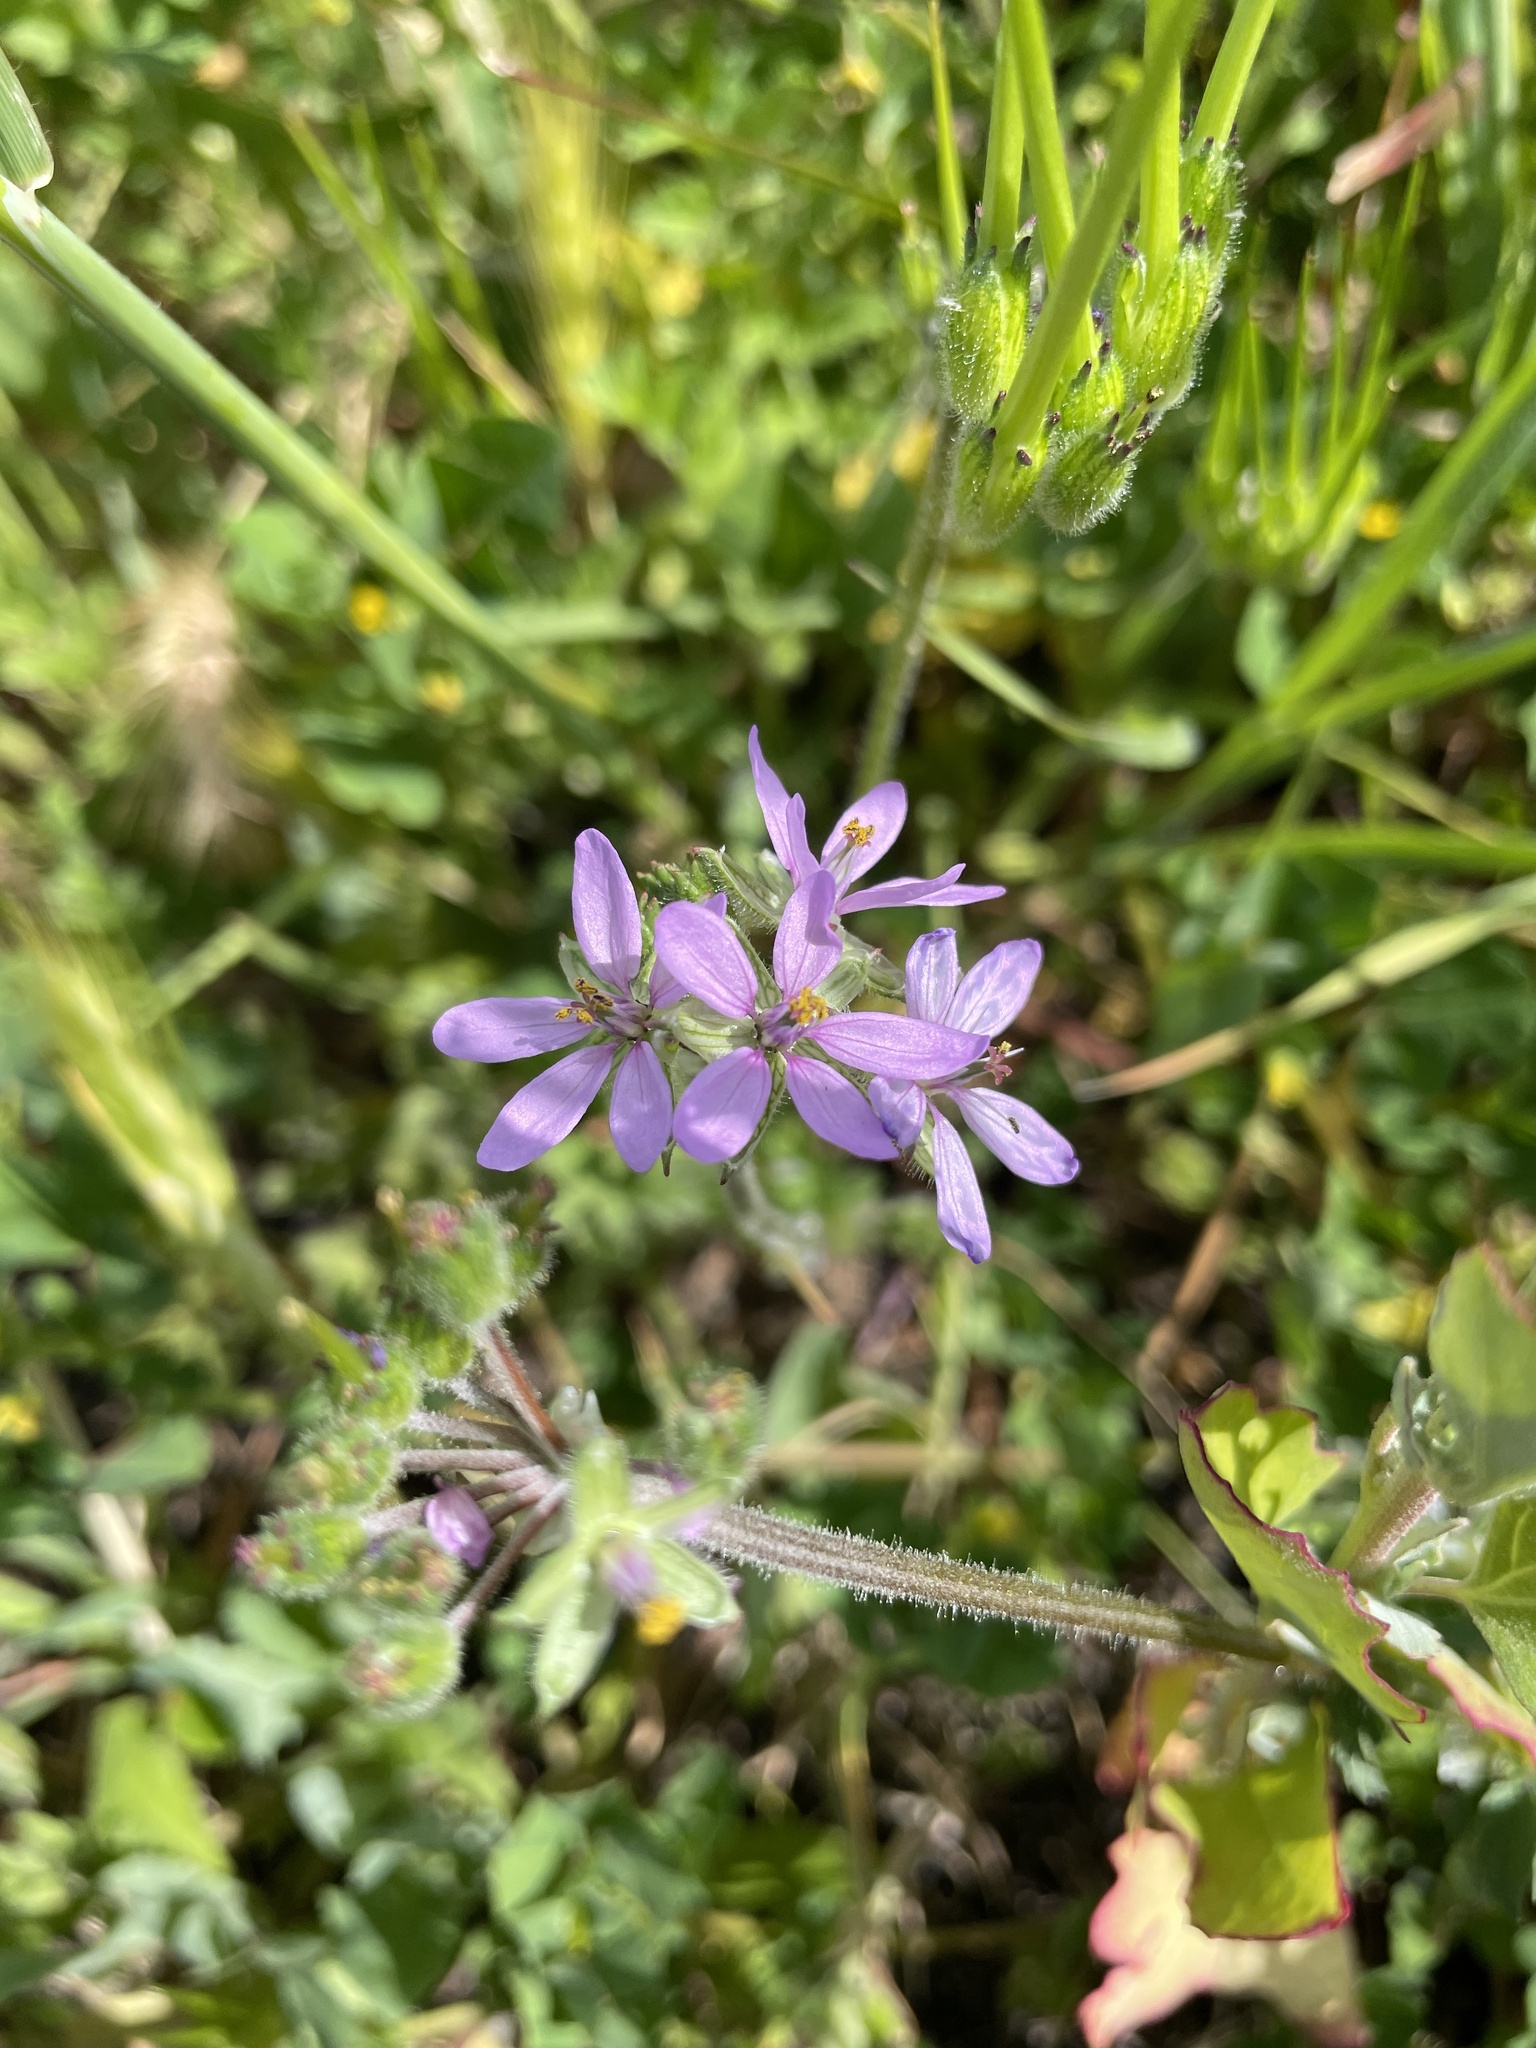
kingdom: Plantae
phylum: Tracheophyta
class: Magnoliopsida
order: Geraniales
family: Geraniaceae
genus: Erodium
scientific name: Erodium moschatum
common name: Musk stork's-bill
